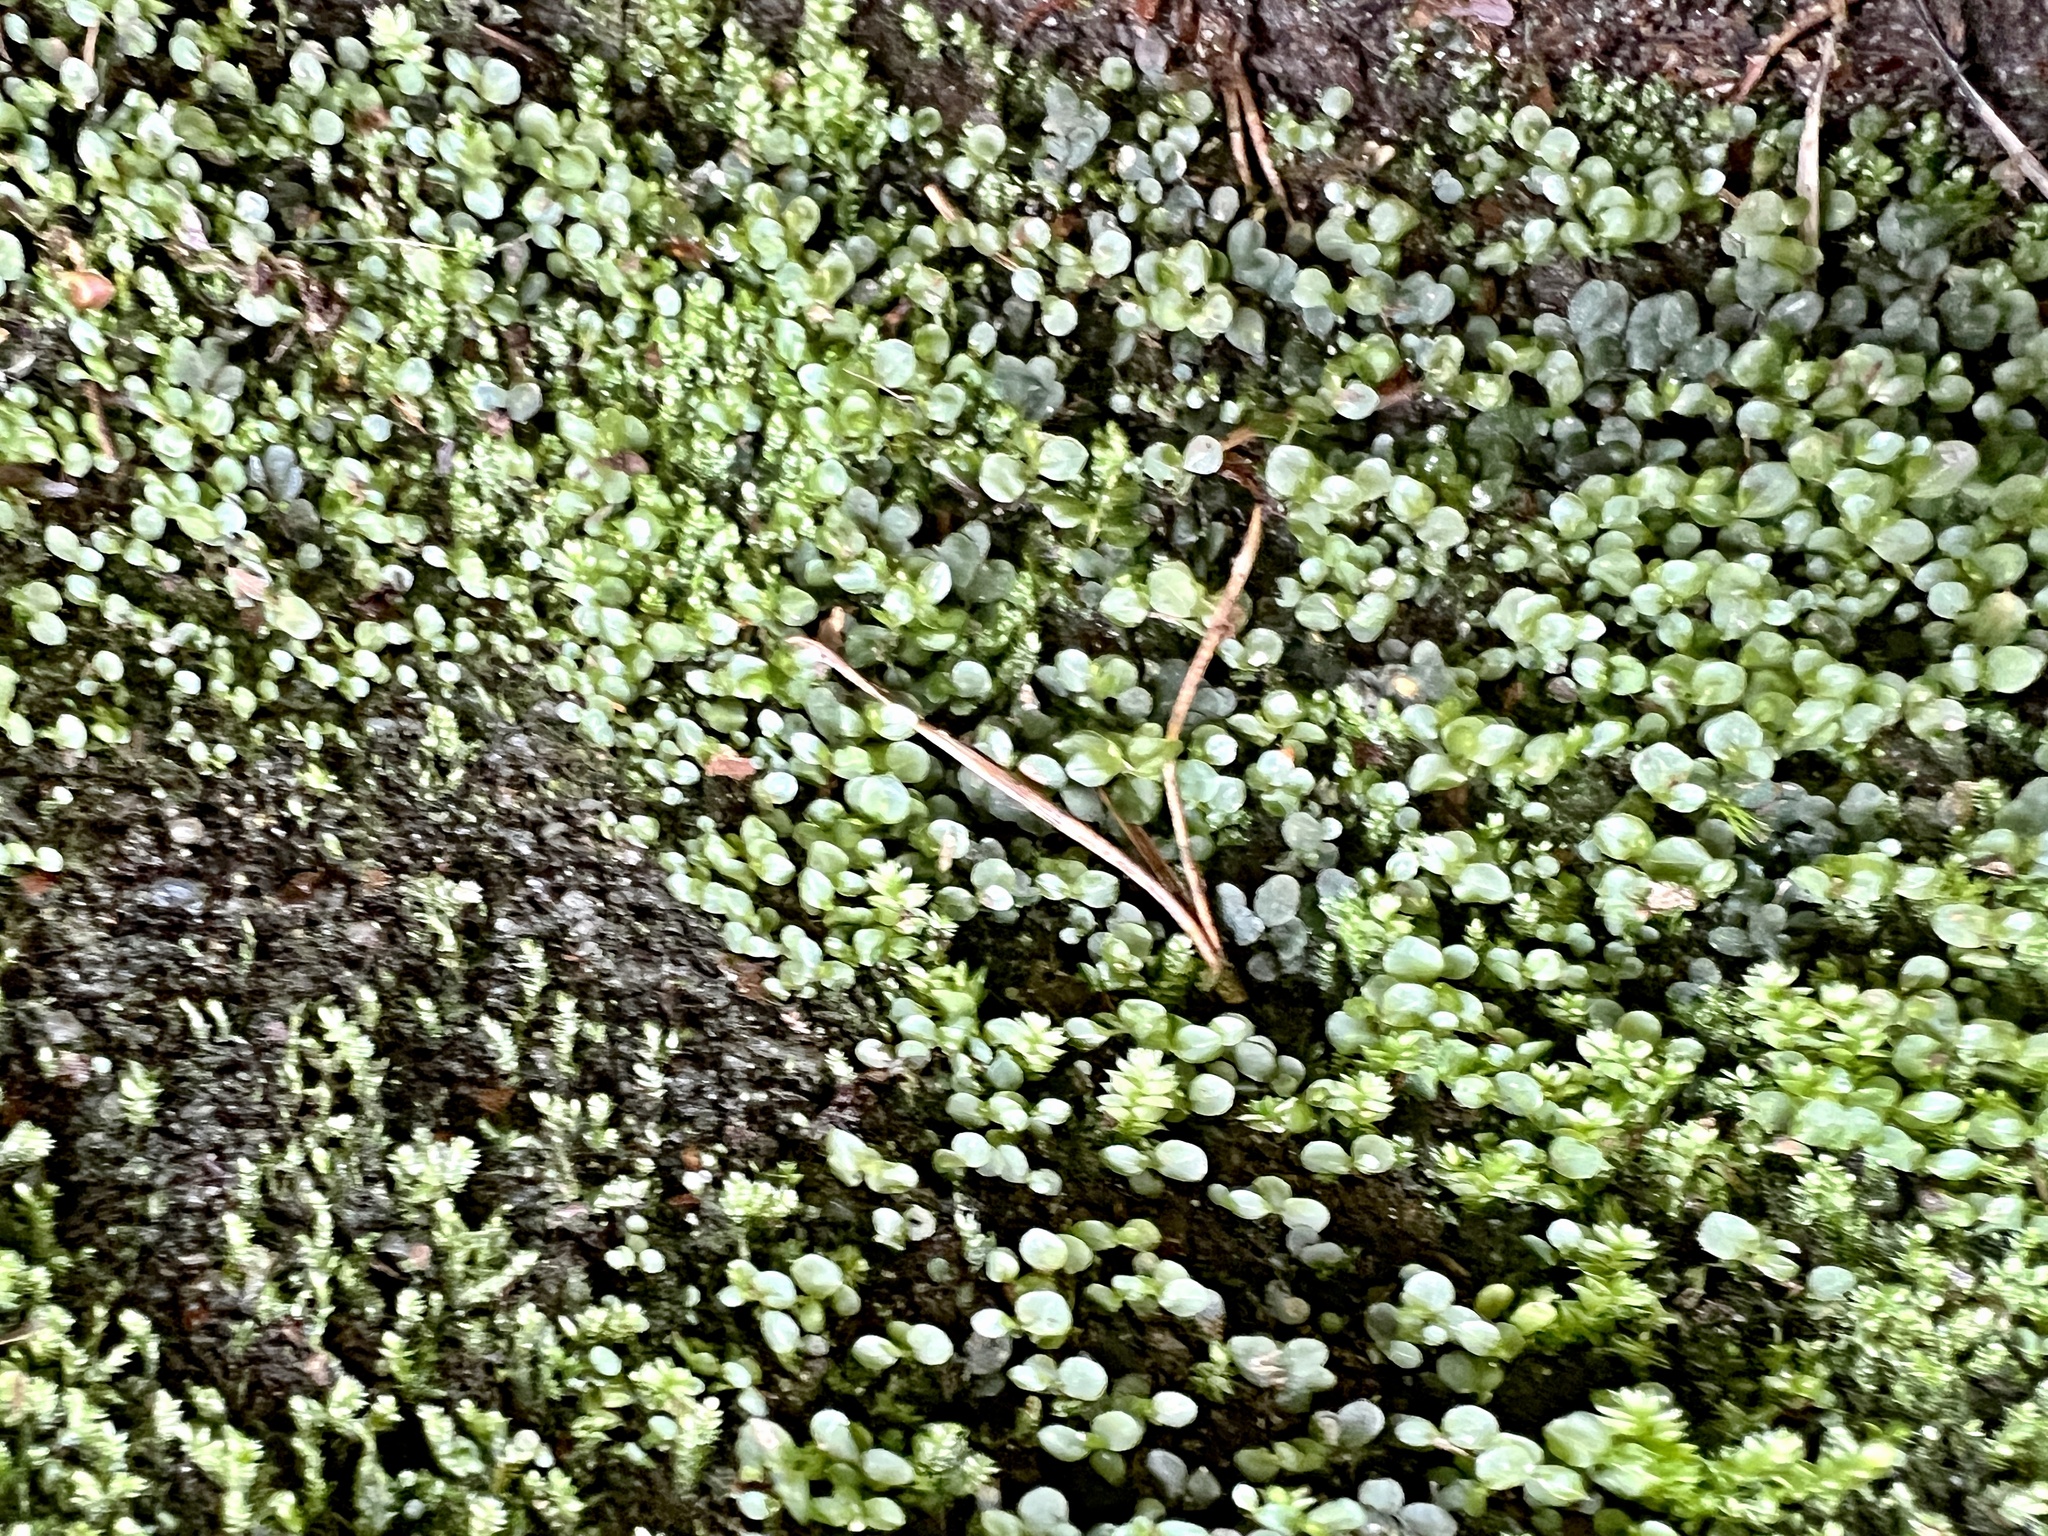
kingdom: Plantae
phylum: Bryophyta
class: Bryopsida
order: Bryales
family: Mniaceae
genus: Rhizomnium
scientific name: Rhizomnium punctatum
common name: Dotted leafy moss
